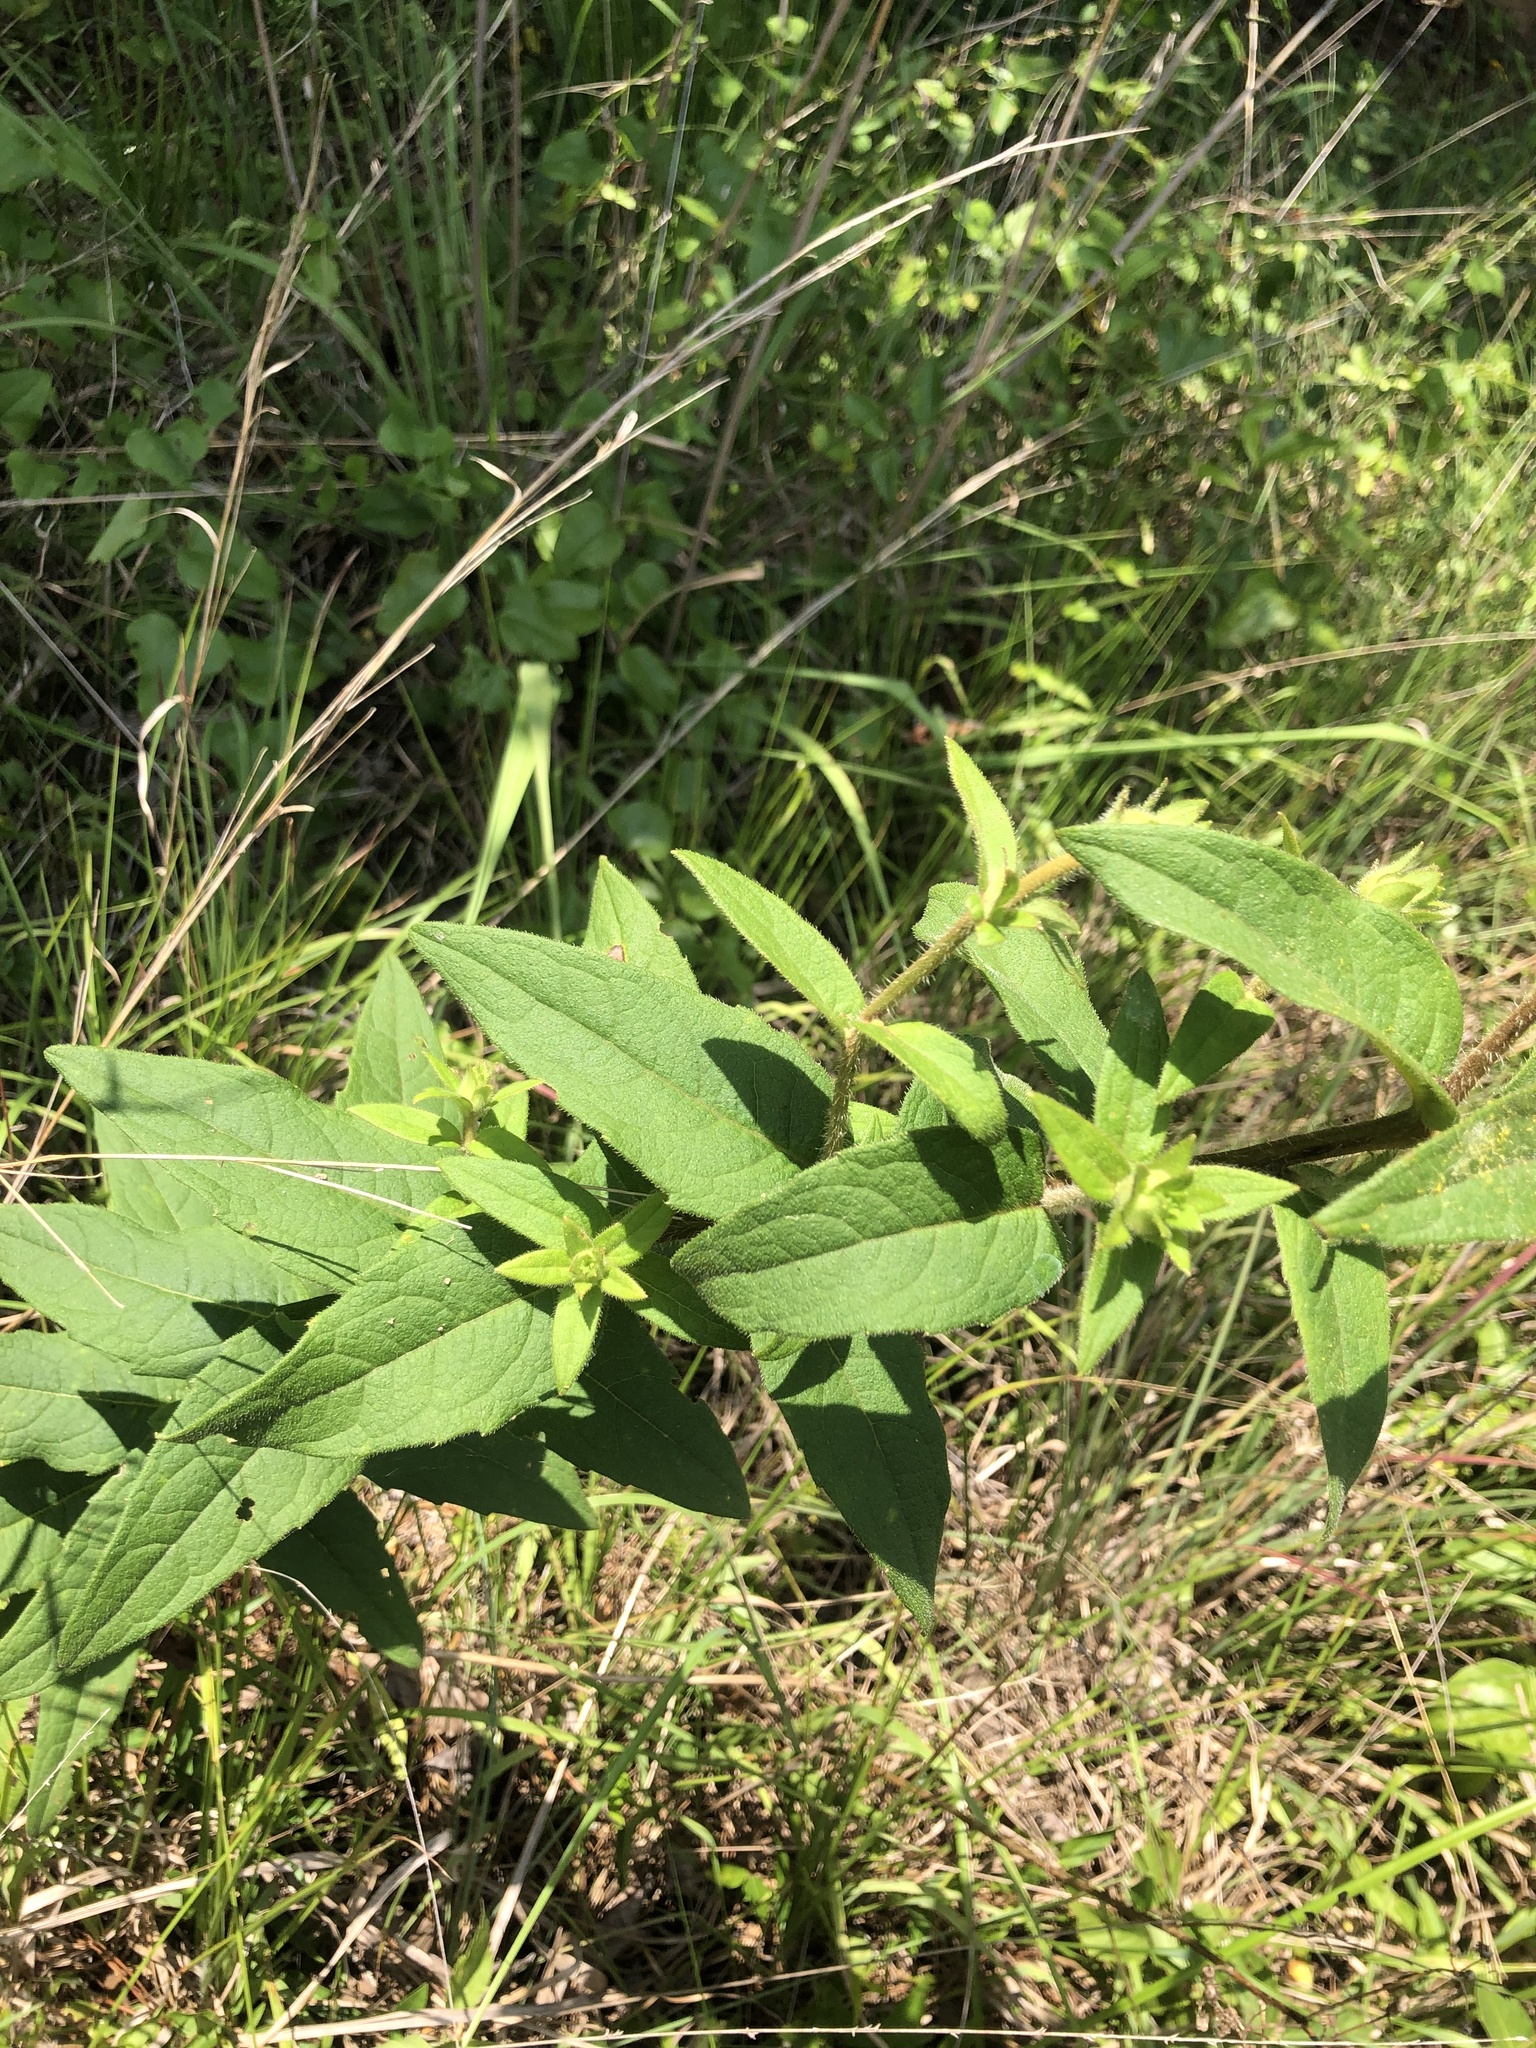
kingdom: Plantae
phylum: Tracheophyta
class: Magnoliopsida
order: Asterales
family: Asteraceae
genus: Silphium
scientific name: Silphium asperrimum
